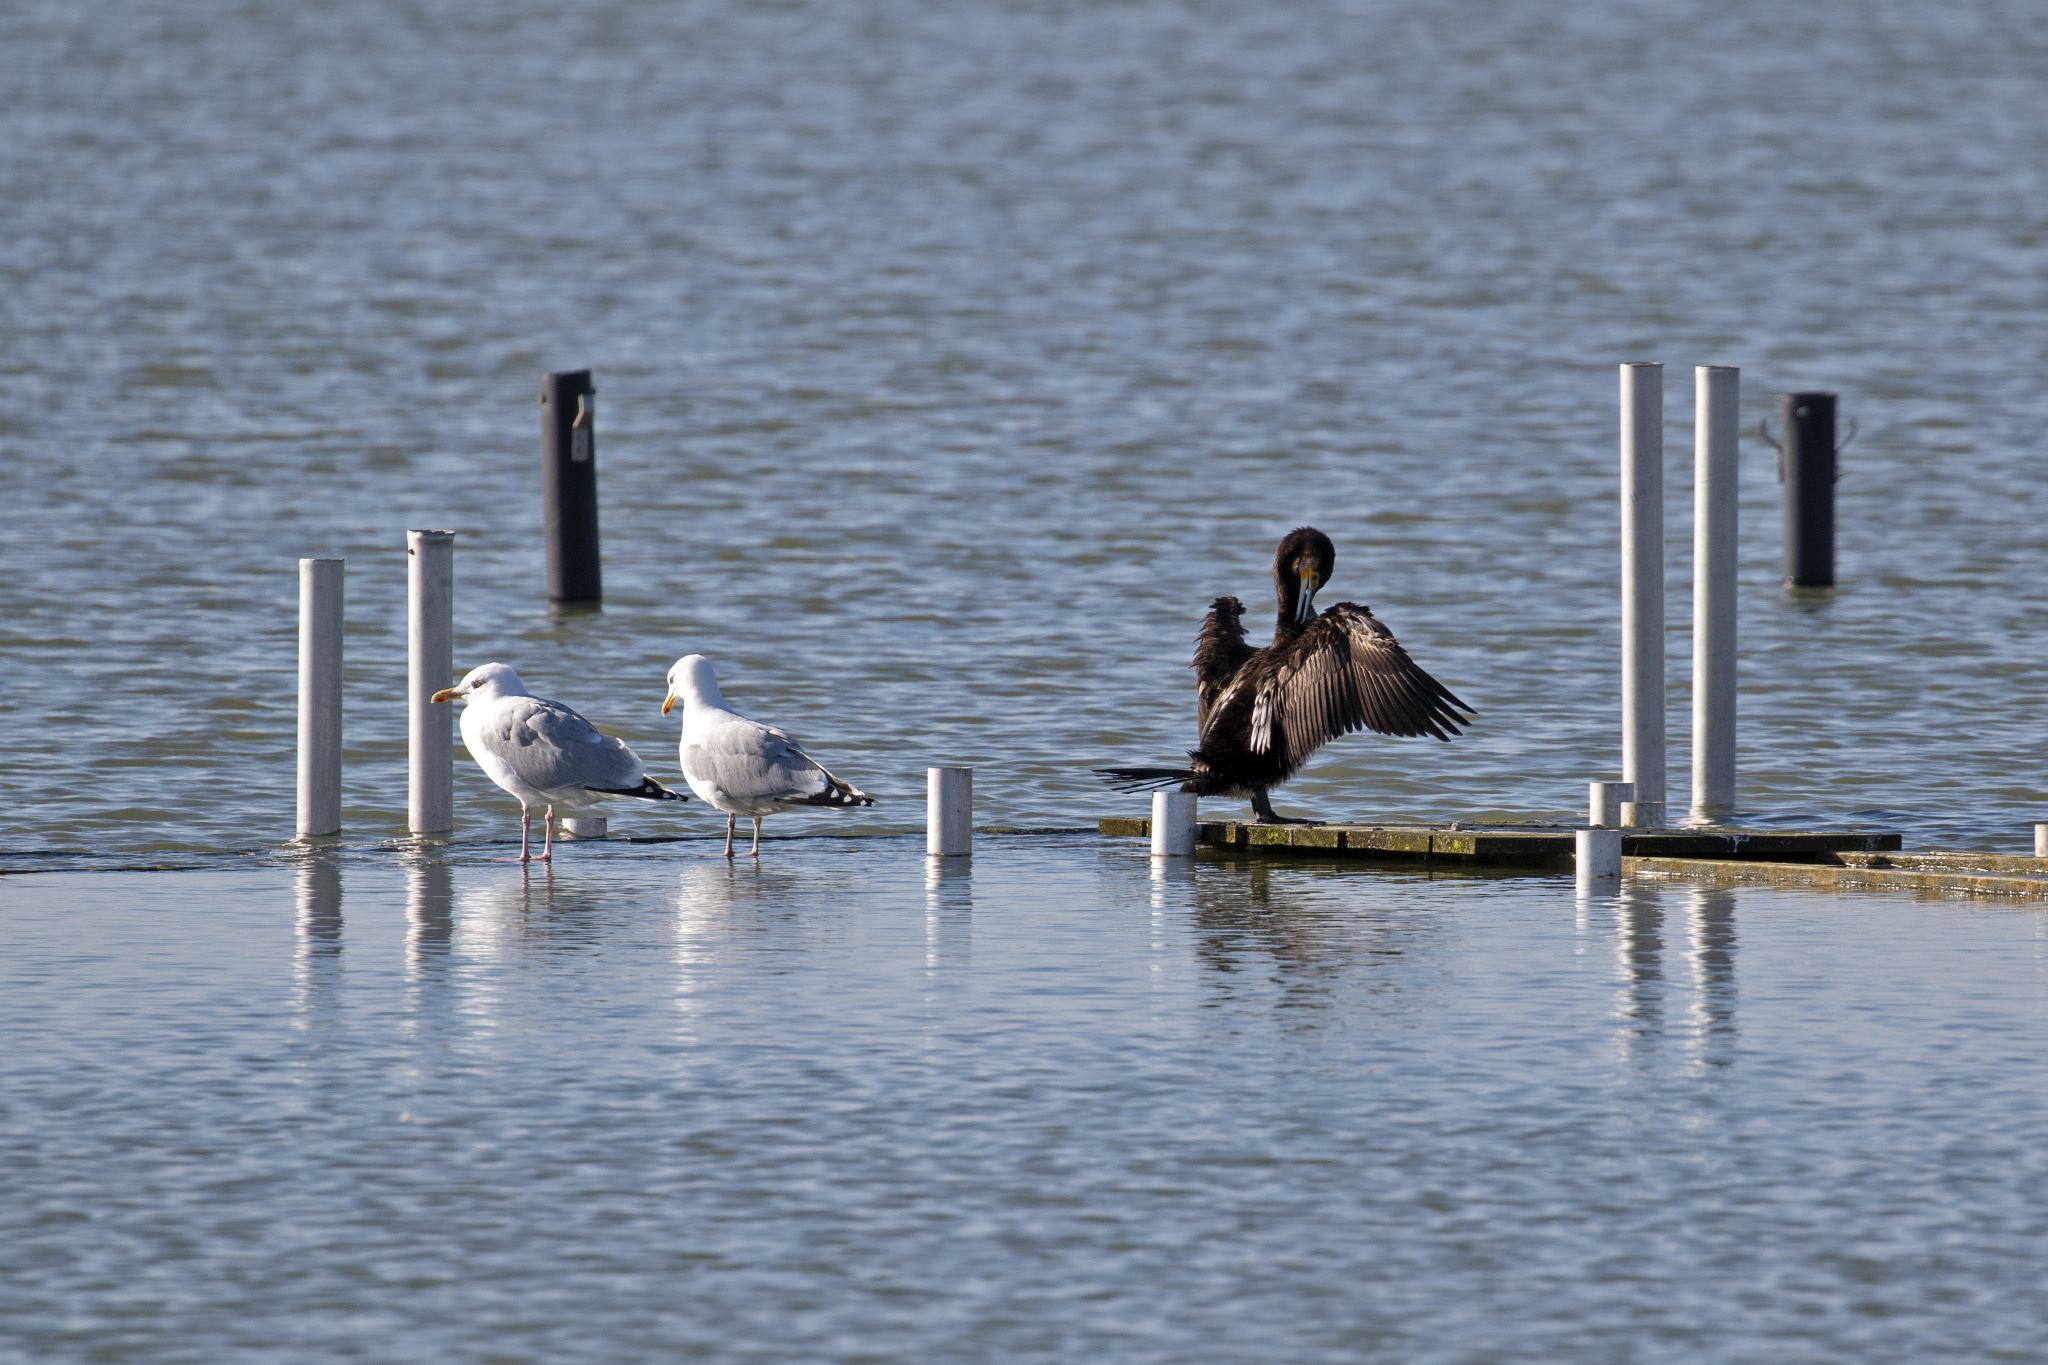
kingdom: Animalia
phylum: Chordata
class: Aves
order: Suliformes
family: Phalacrocoracidae
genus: Phalacrocorax
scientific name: Phalacrocorax carbo
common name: Great cormorant
